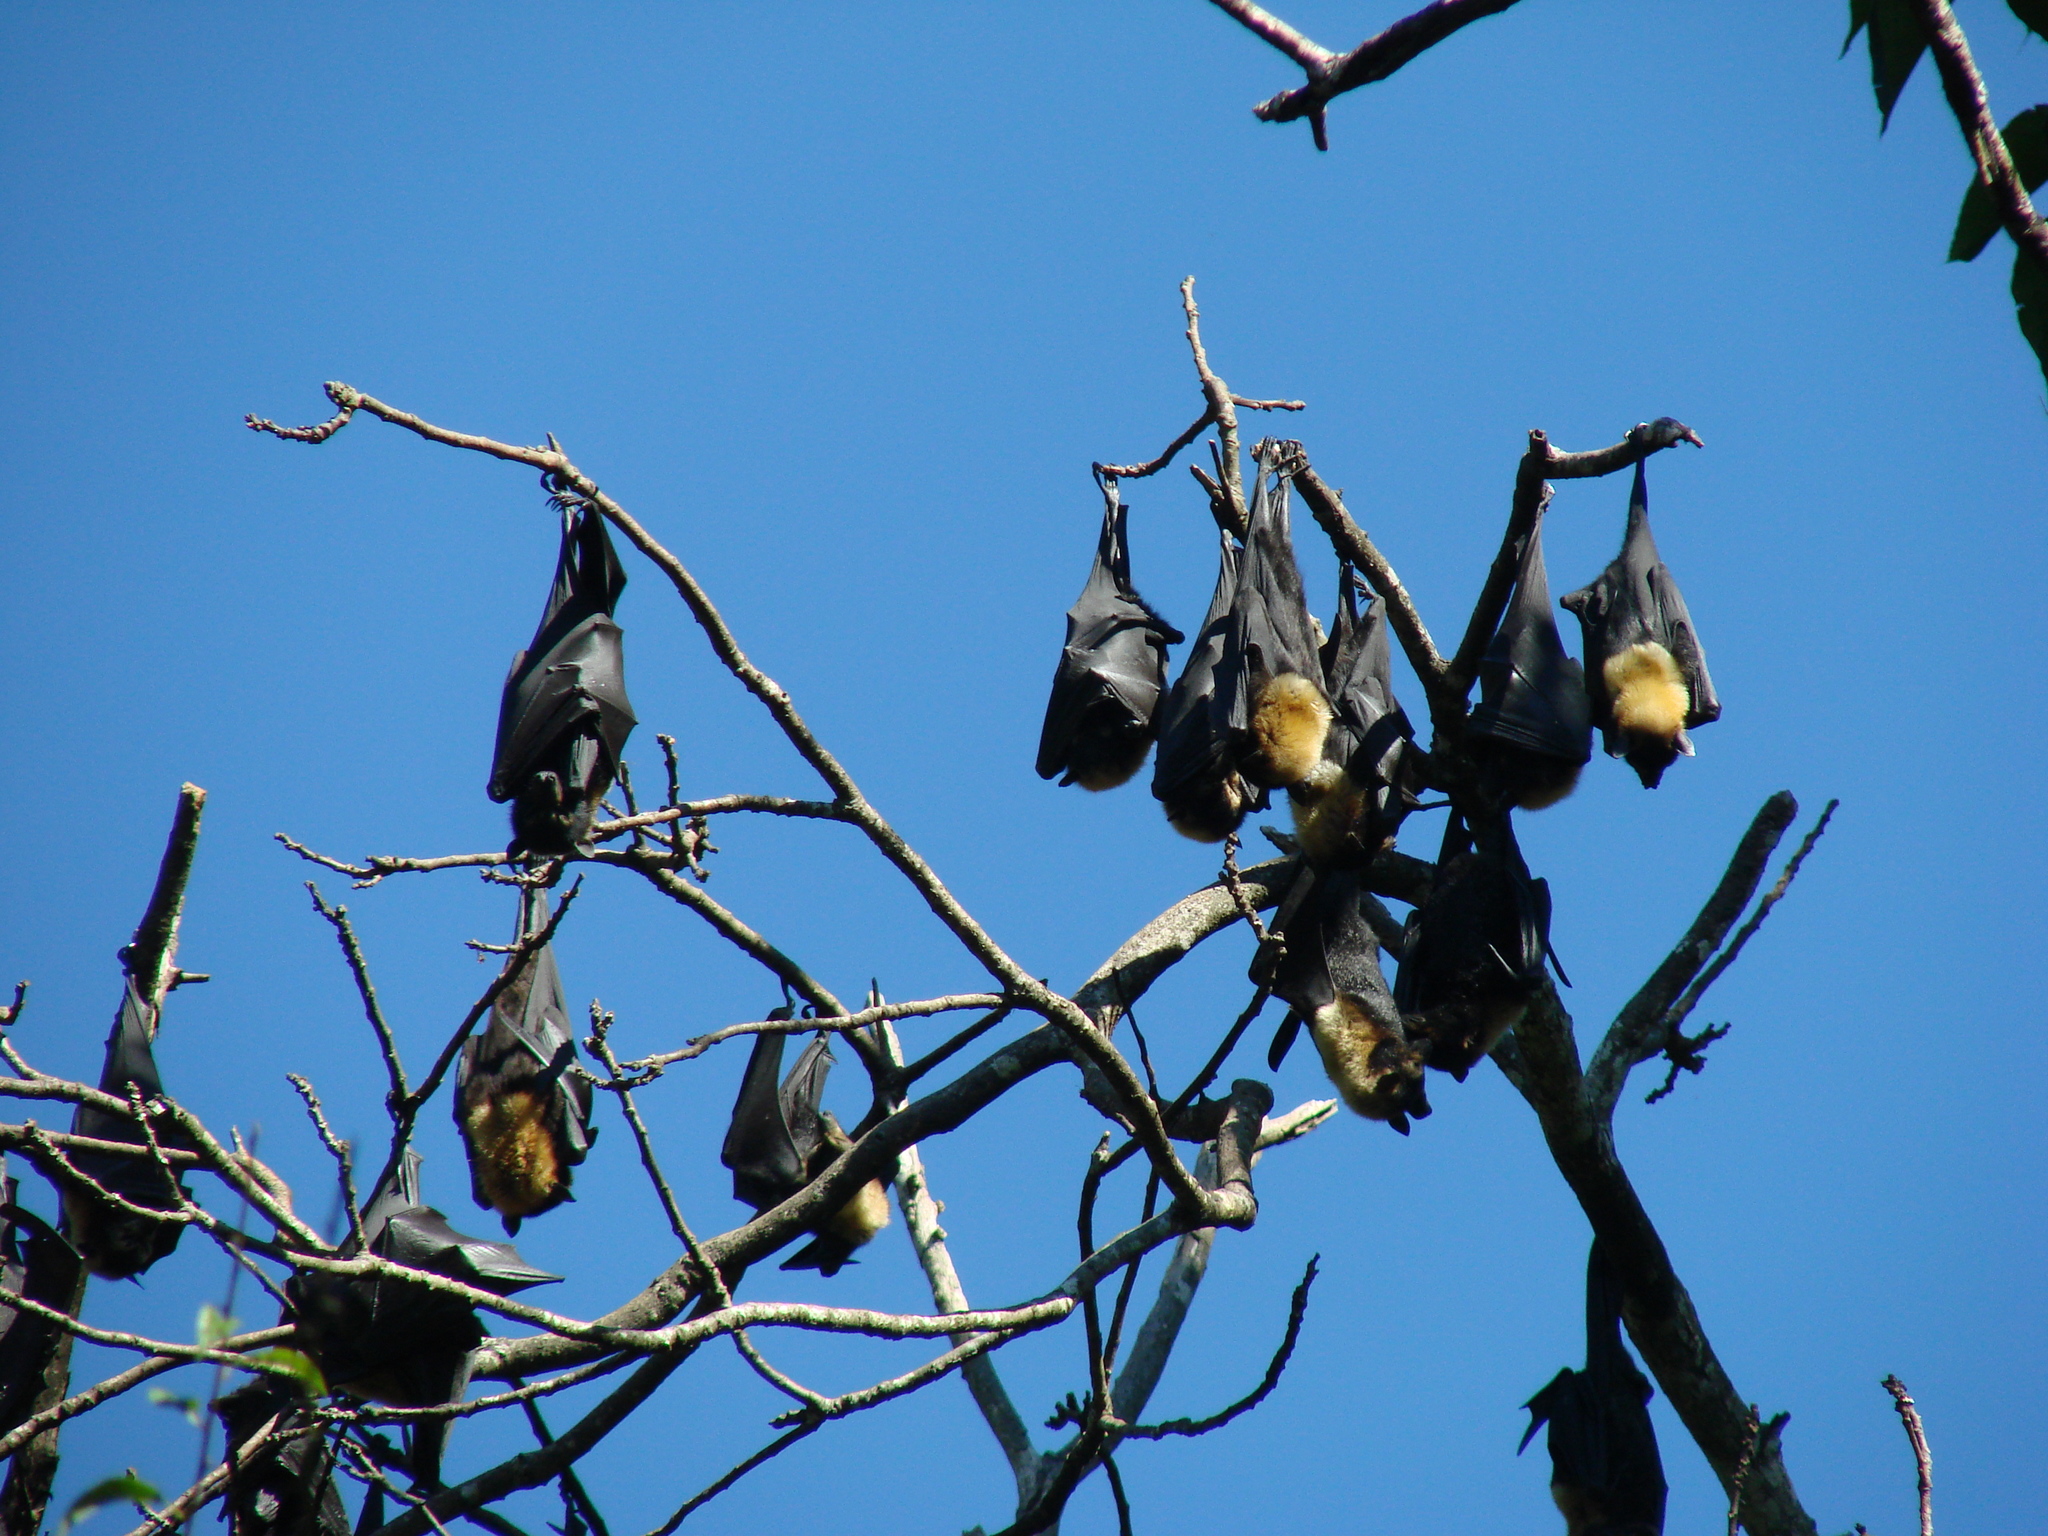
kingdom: Animalia
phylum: Chordata
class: Mammalia
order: Chiroptera
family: Pteropodidae
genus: Pteropus
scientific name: Pteropus conspicillatus
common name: Spectacled flying fox
